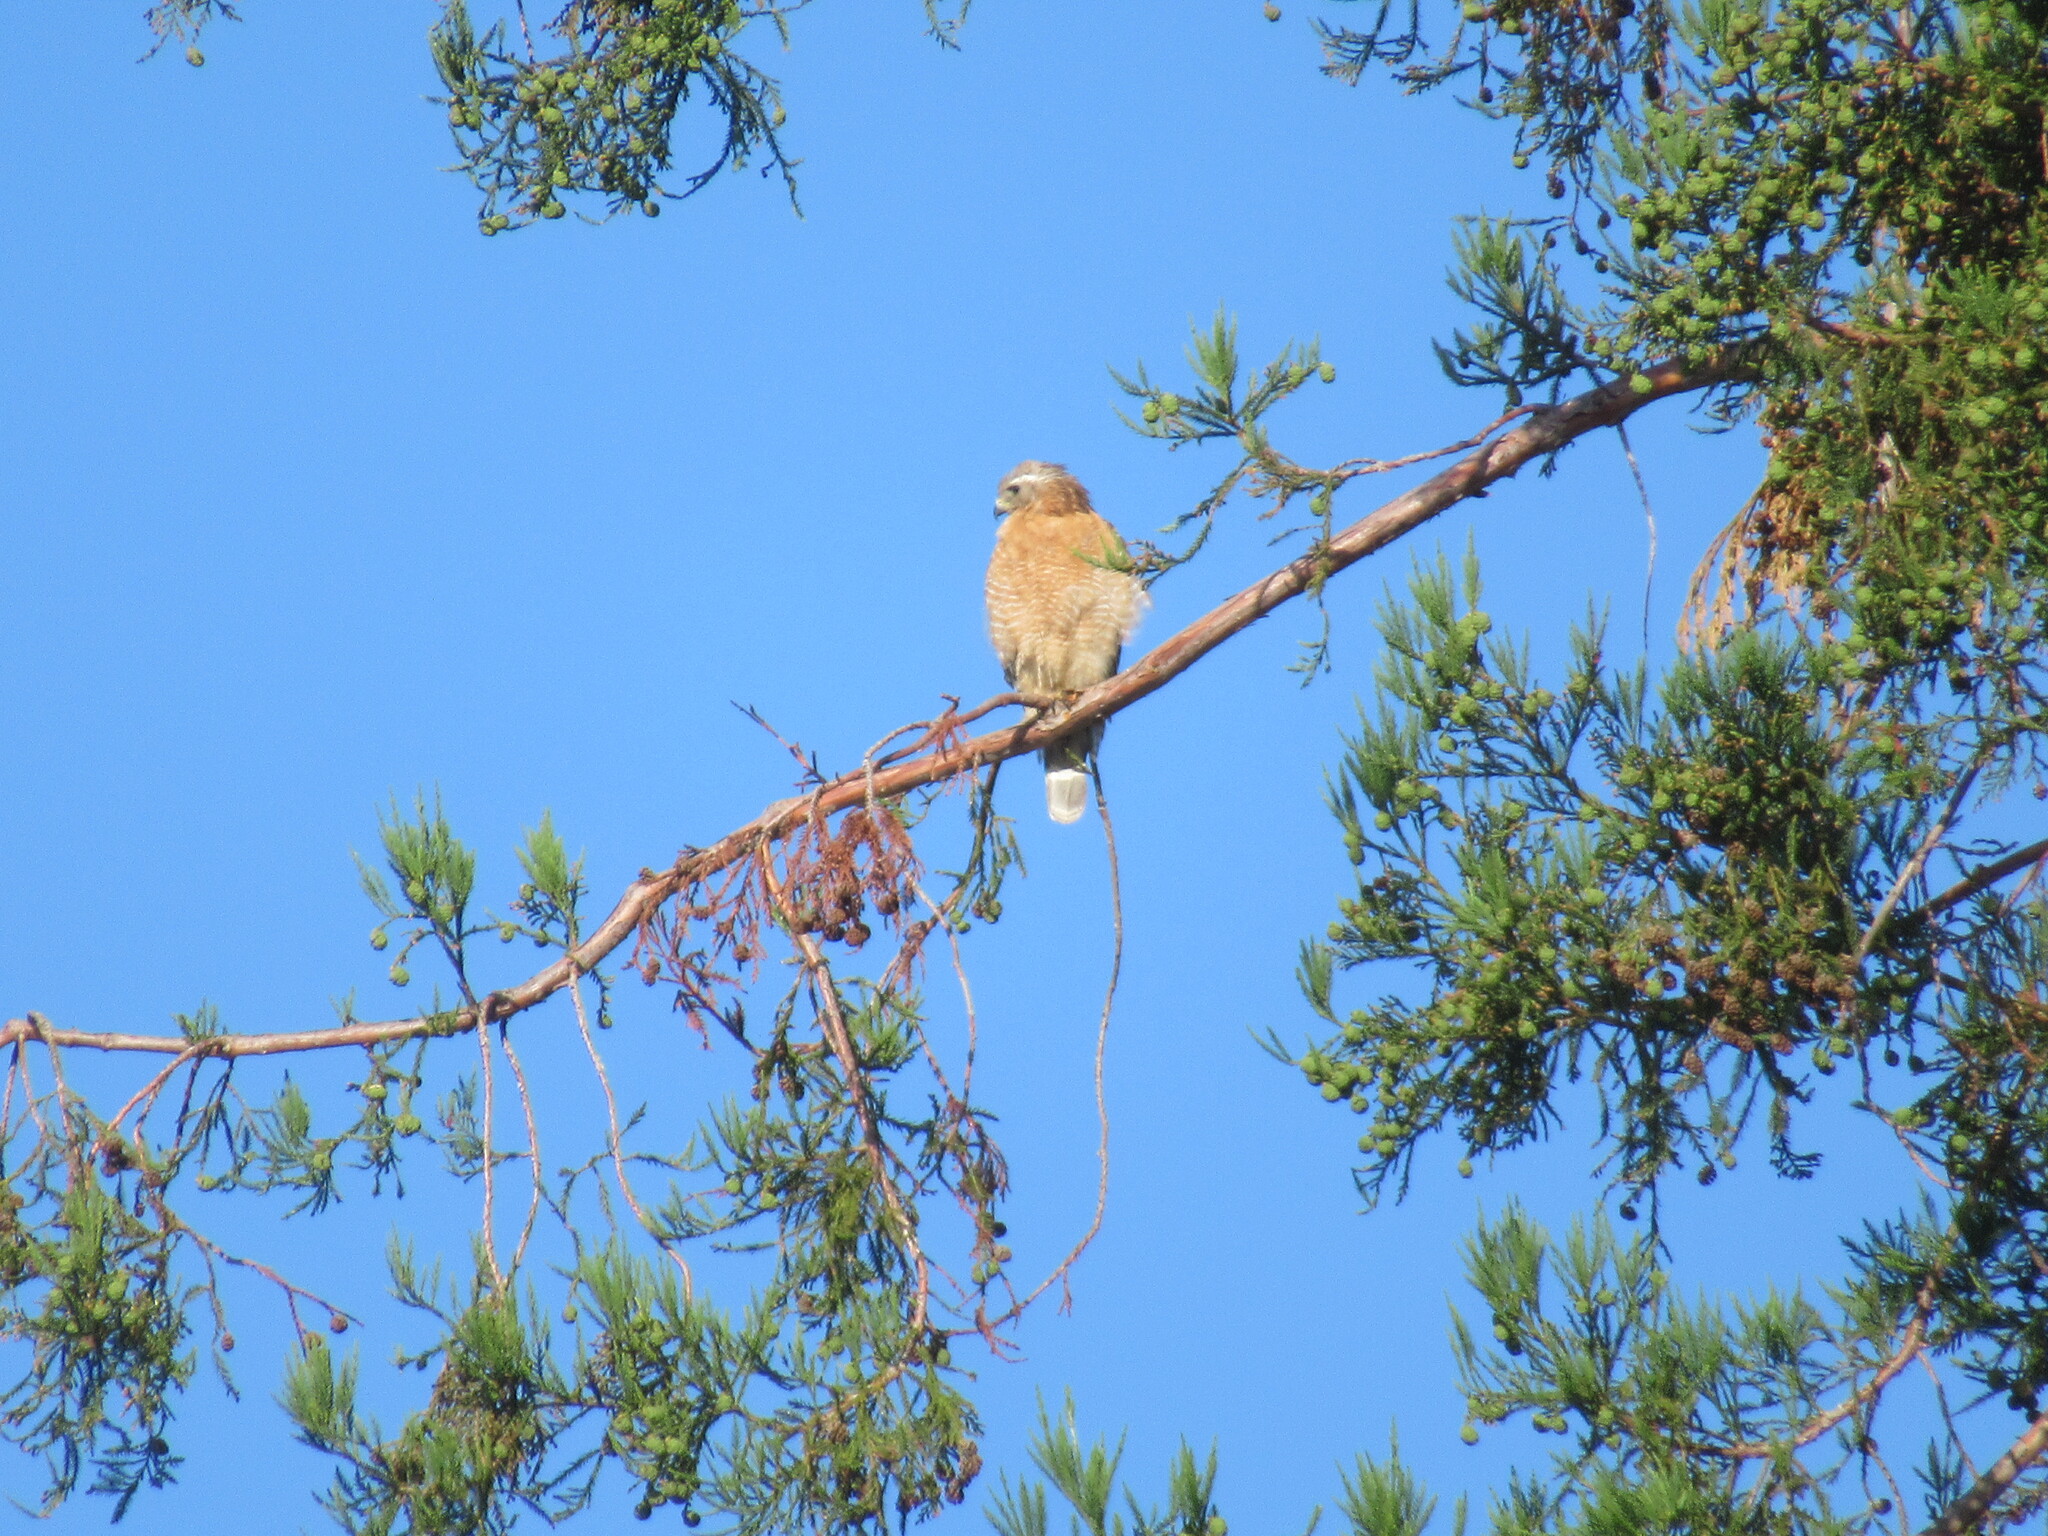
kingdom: Animalia
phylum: Chordata
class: Aves
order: Accipitriformes
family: Accipitridae
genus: Buteo
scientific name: Buteo lineatus
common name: Red-shouldered hawk
